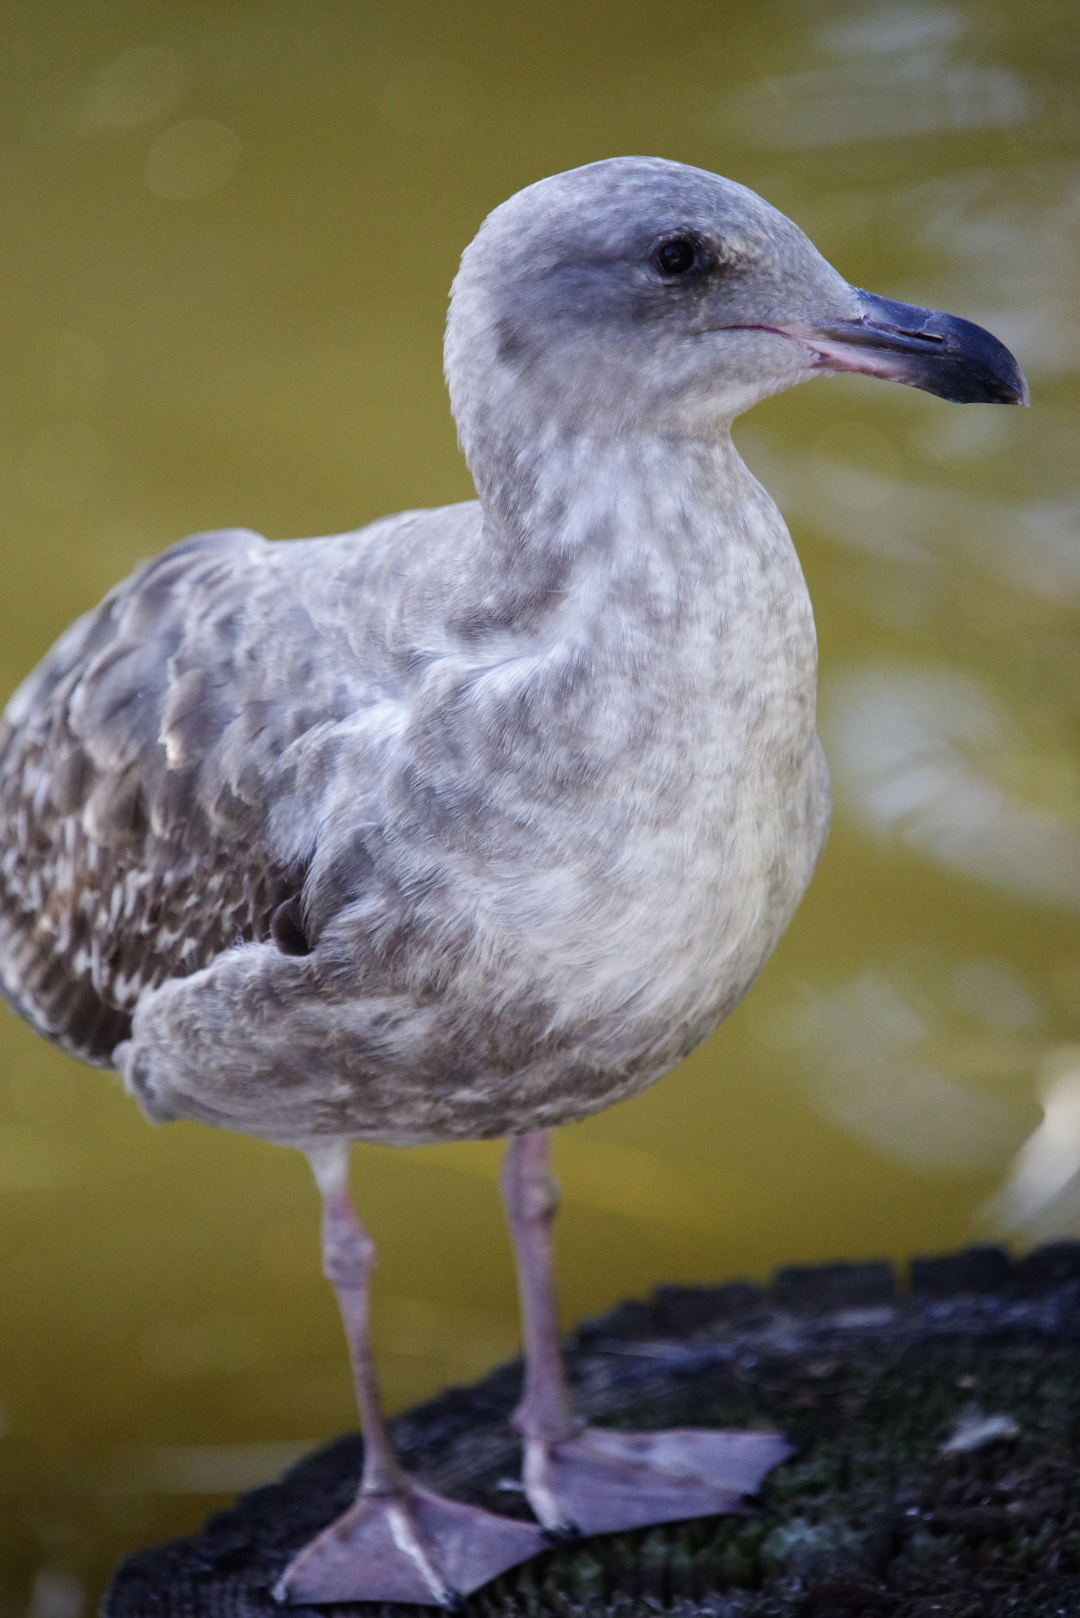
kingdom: Animalia
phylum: Chordata
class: Aves
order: Charadriiformes
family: Laridae
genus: Larus
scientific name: Larus occidentalis
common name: Western gull
